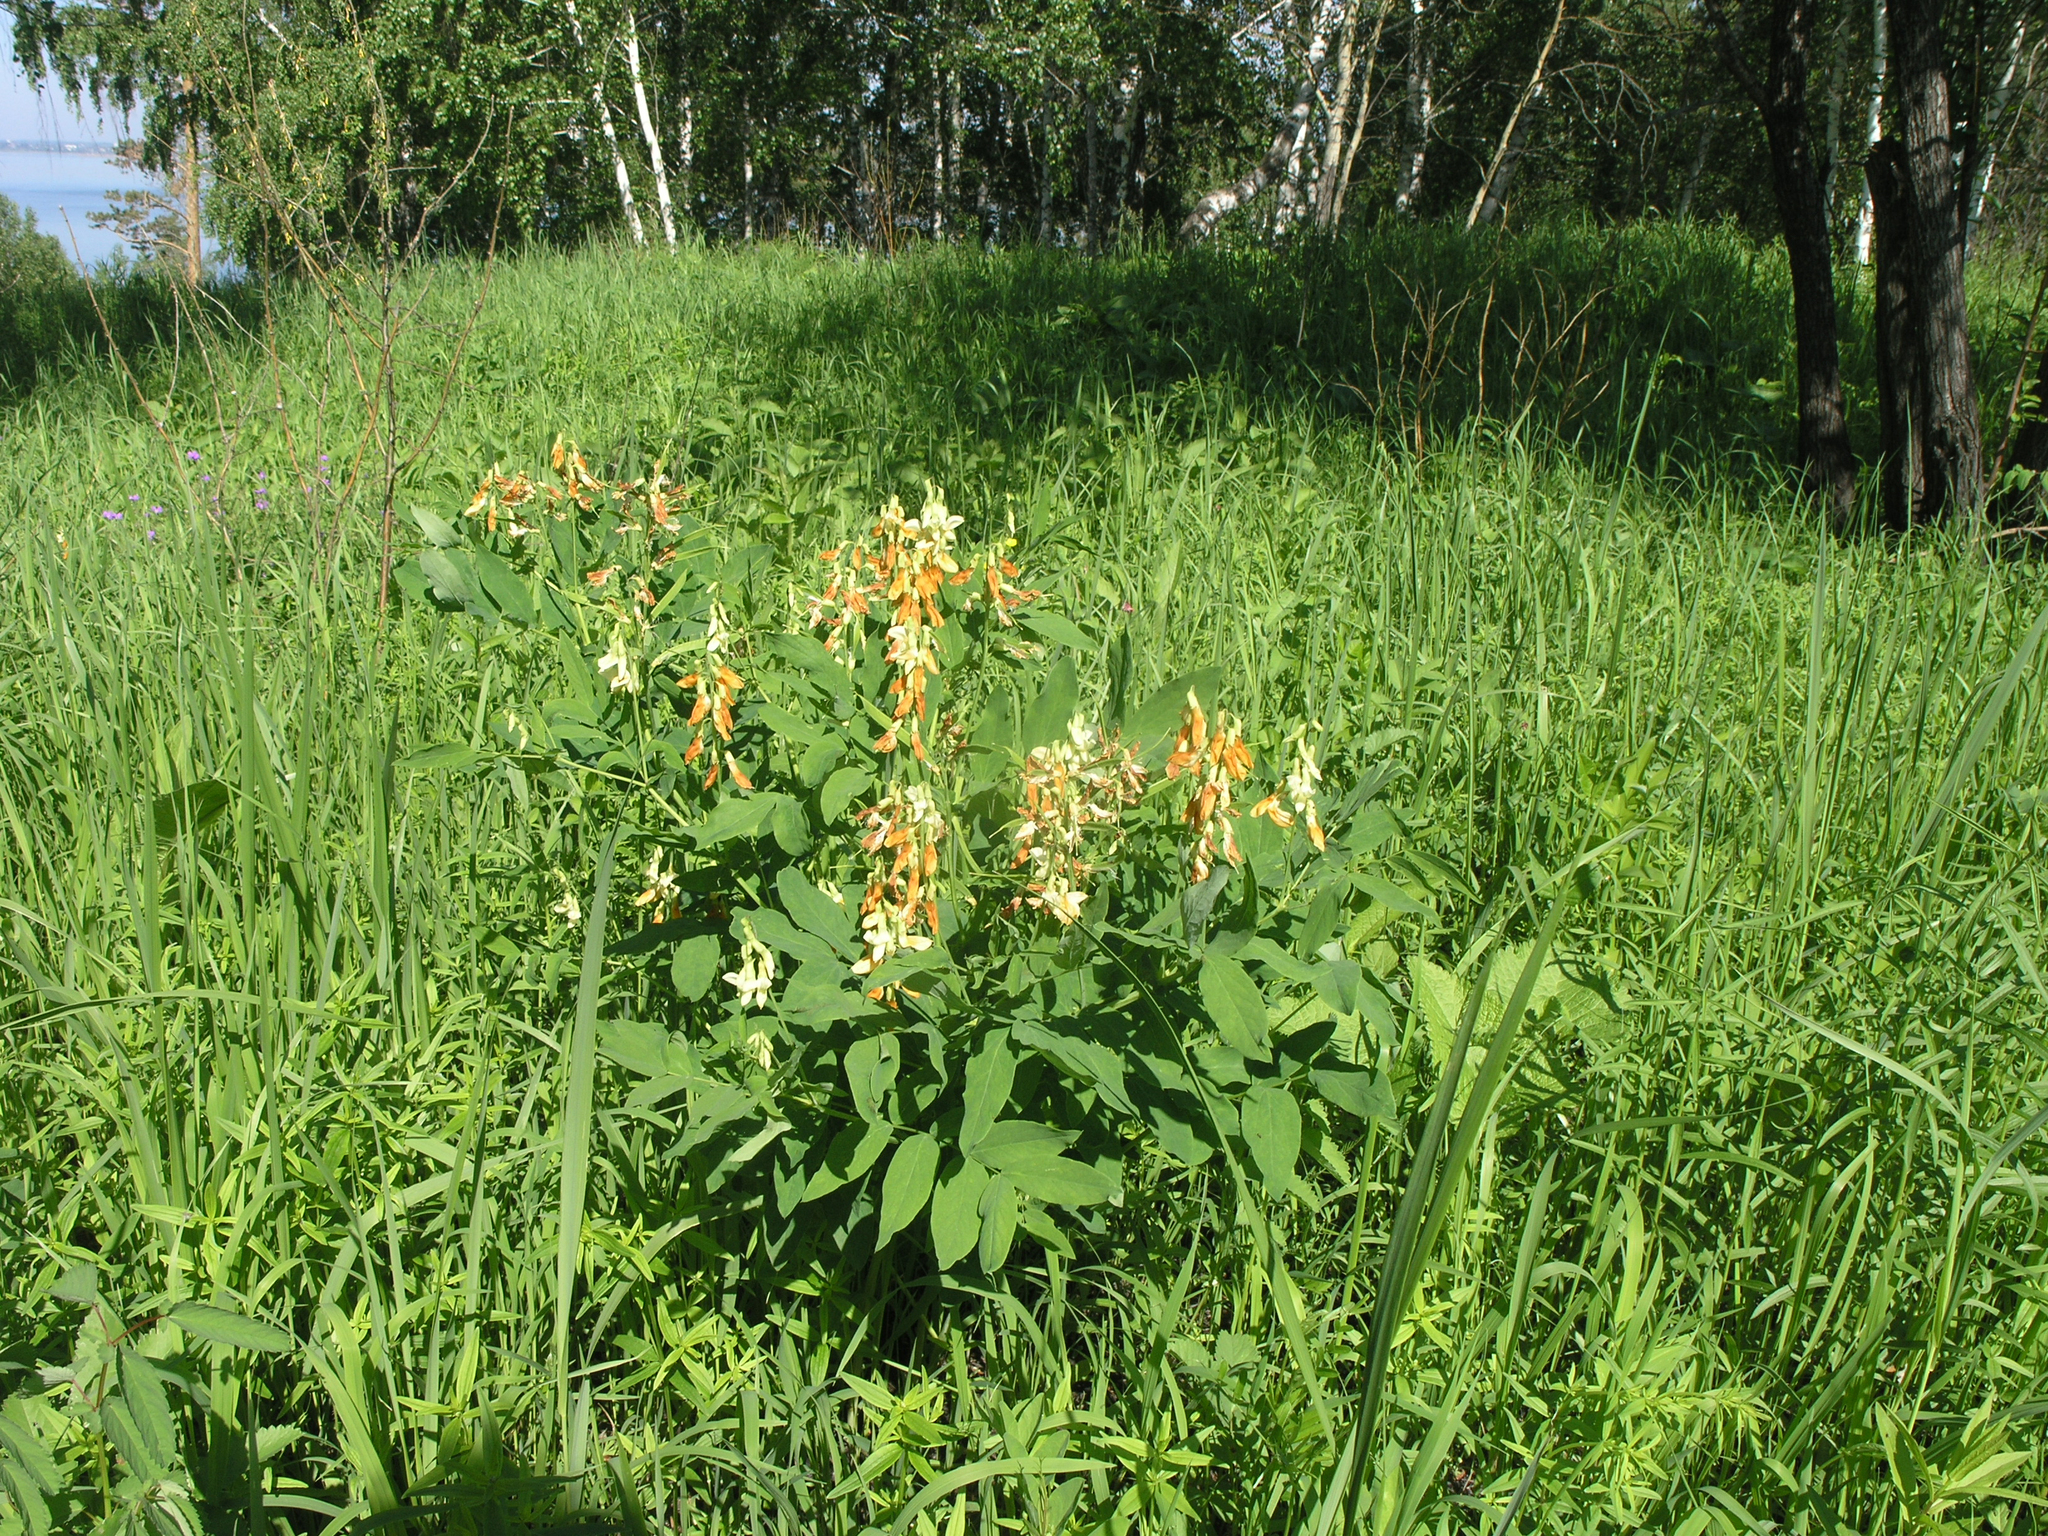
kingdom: Plantae
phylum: Tracheophyta
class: Magnoliopsida
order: Fabales
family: Fabaceae
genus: Lathyrus
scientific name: Lathyrus gmelinii
